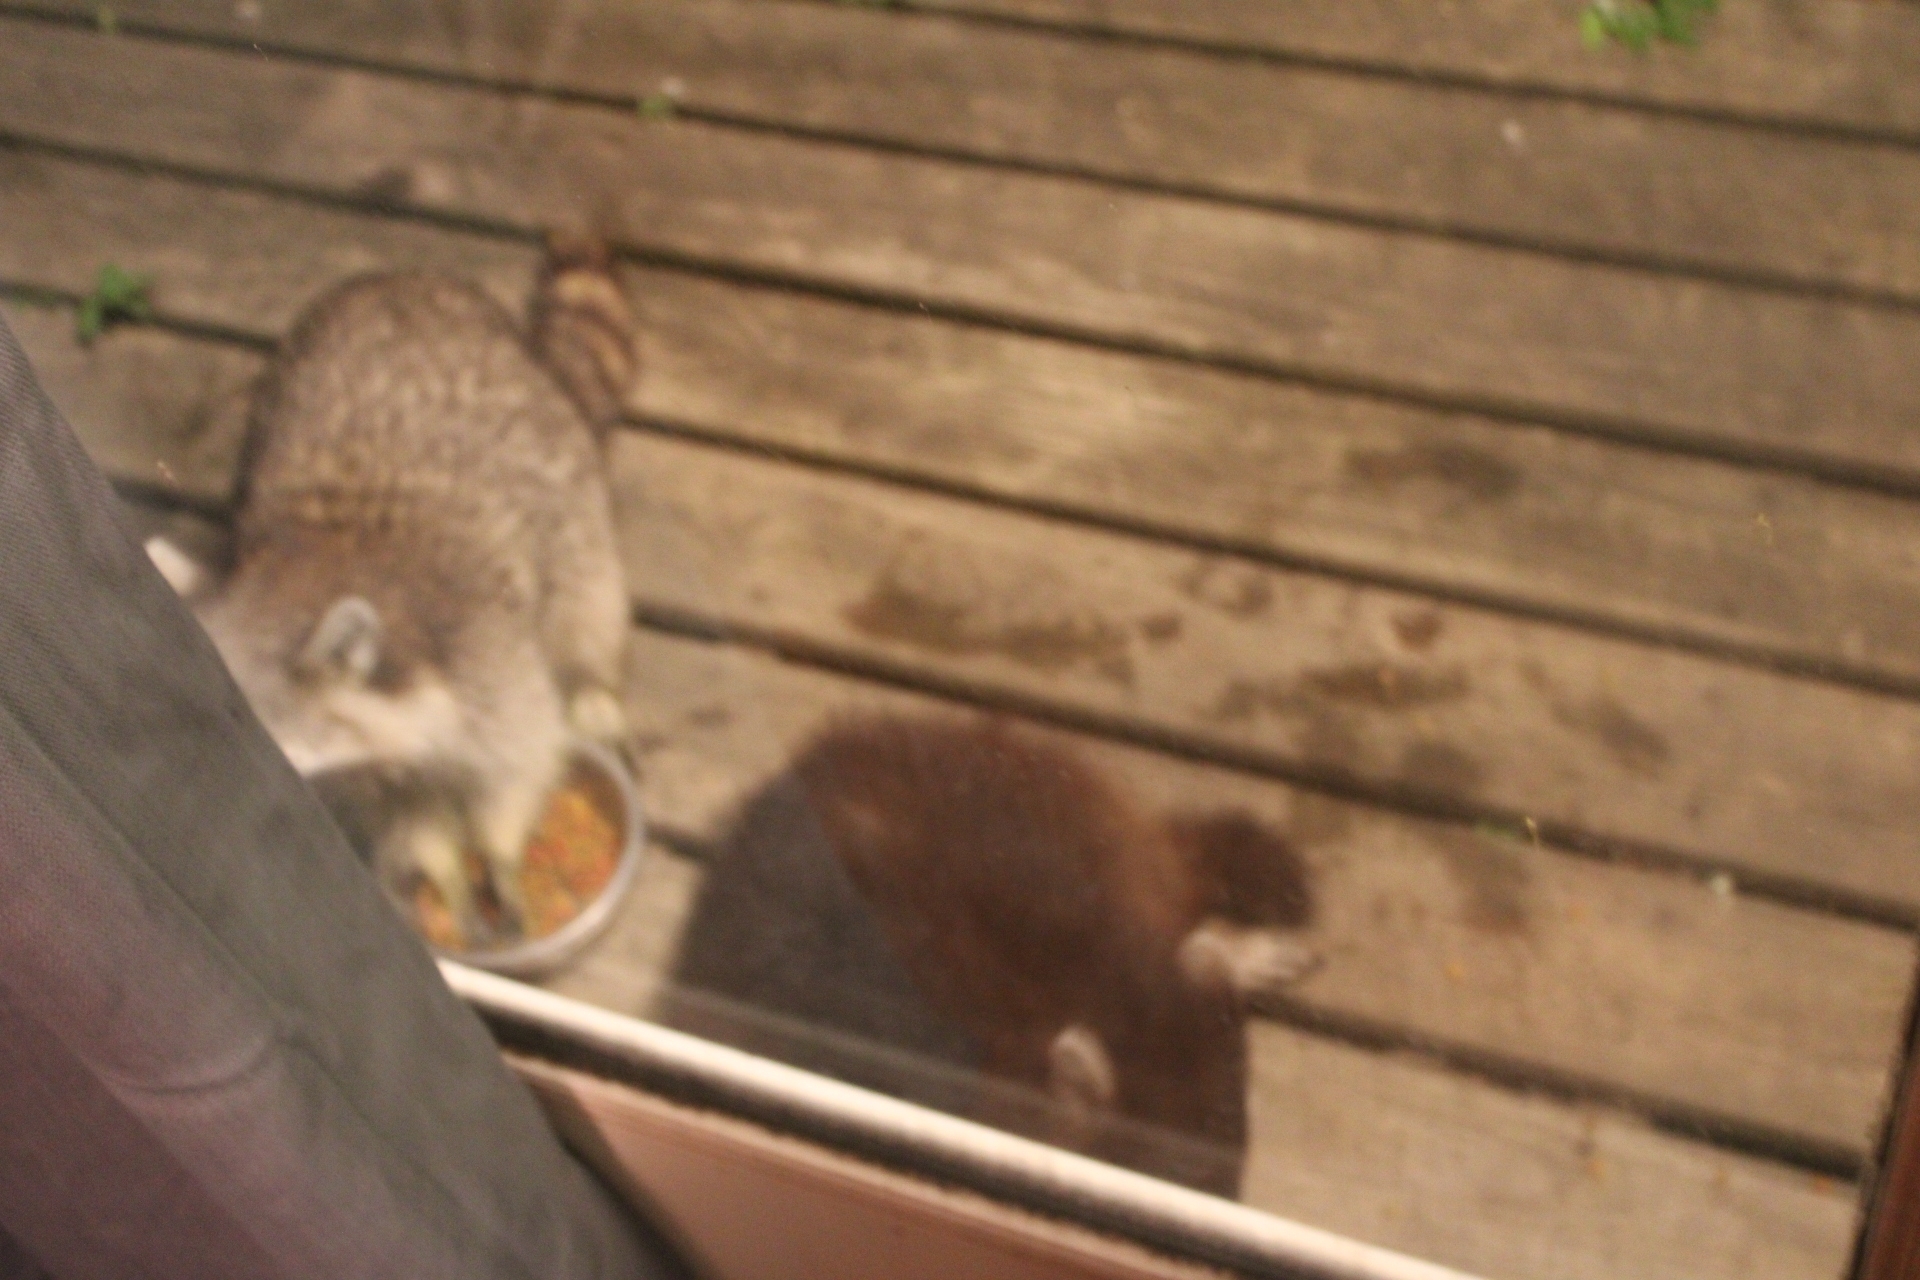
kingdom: Animalia
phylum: Chordata
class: Mammalia
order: Carnivora
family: Procyonidae
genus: Procyon
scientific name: Procyon lotor
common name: Raccoon
